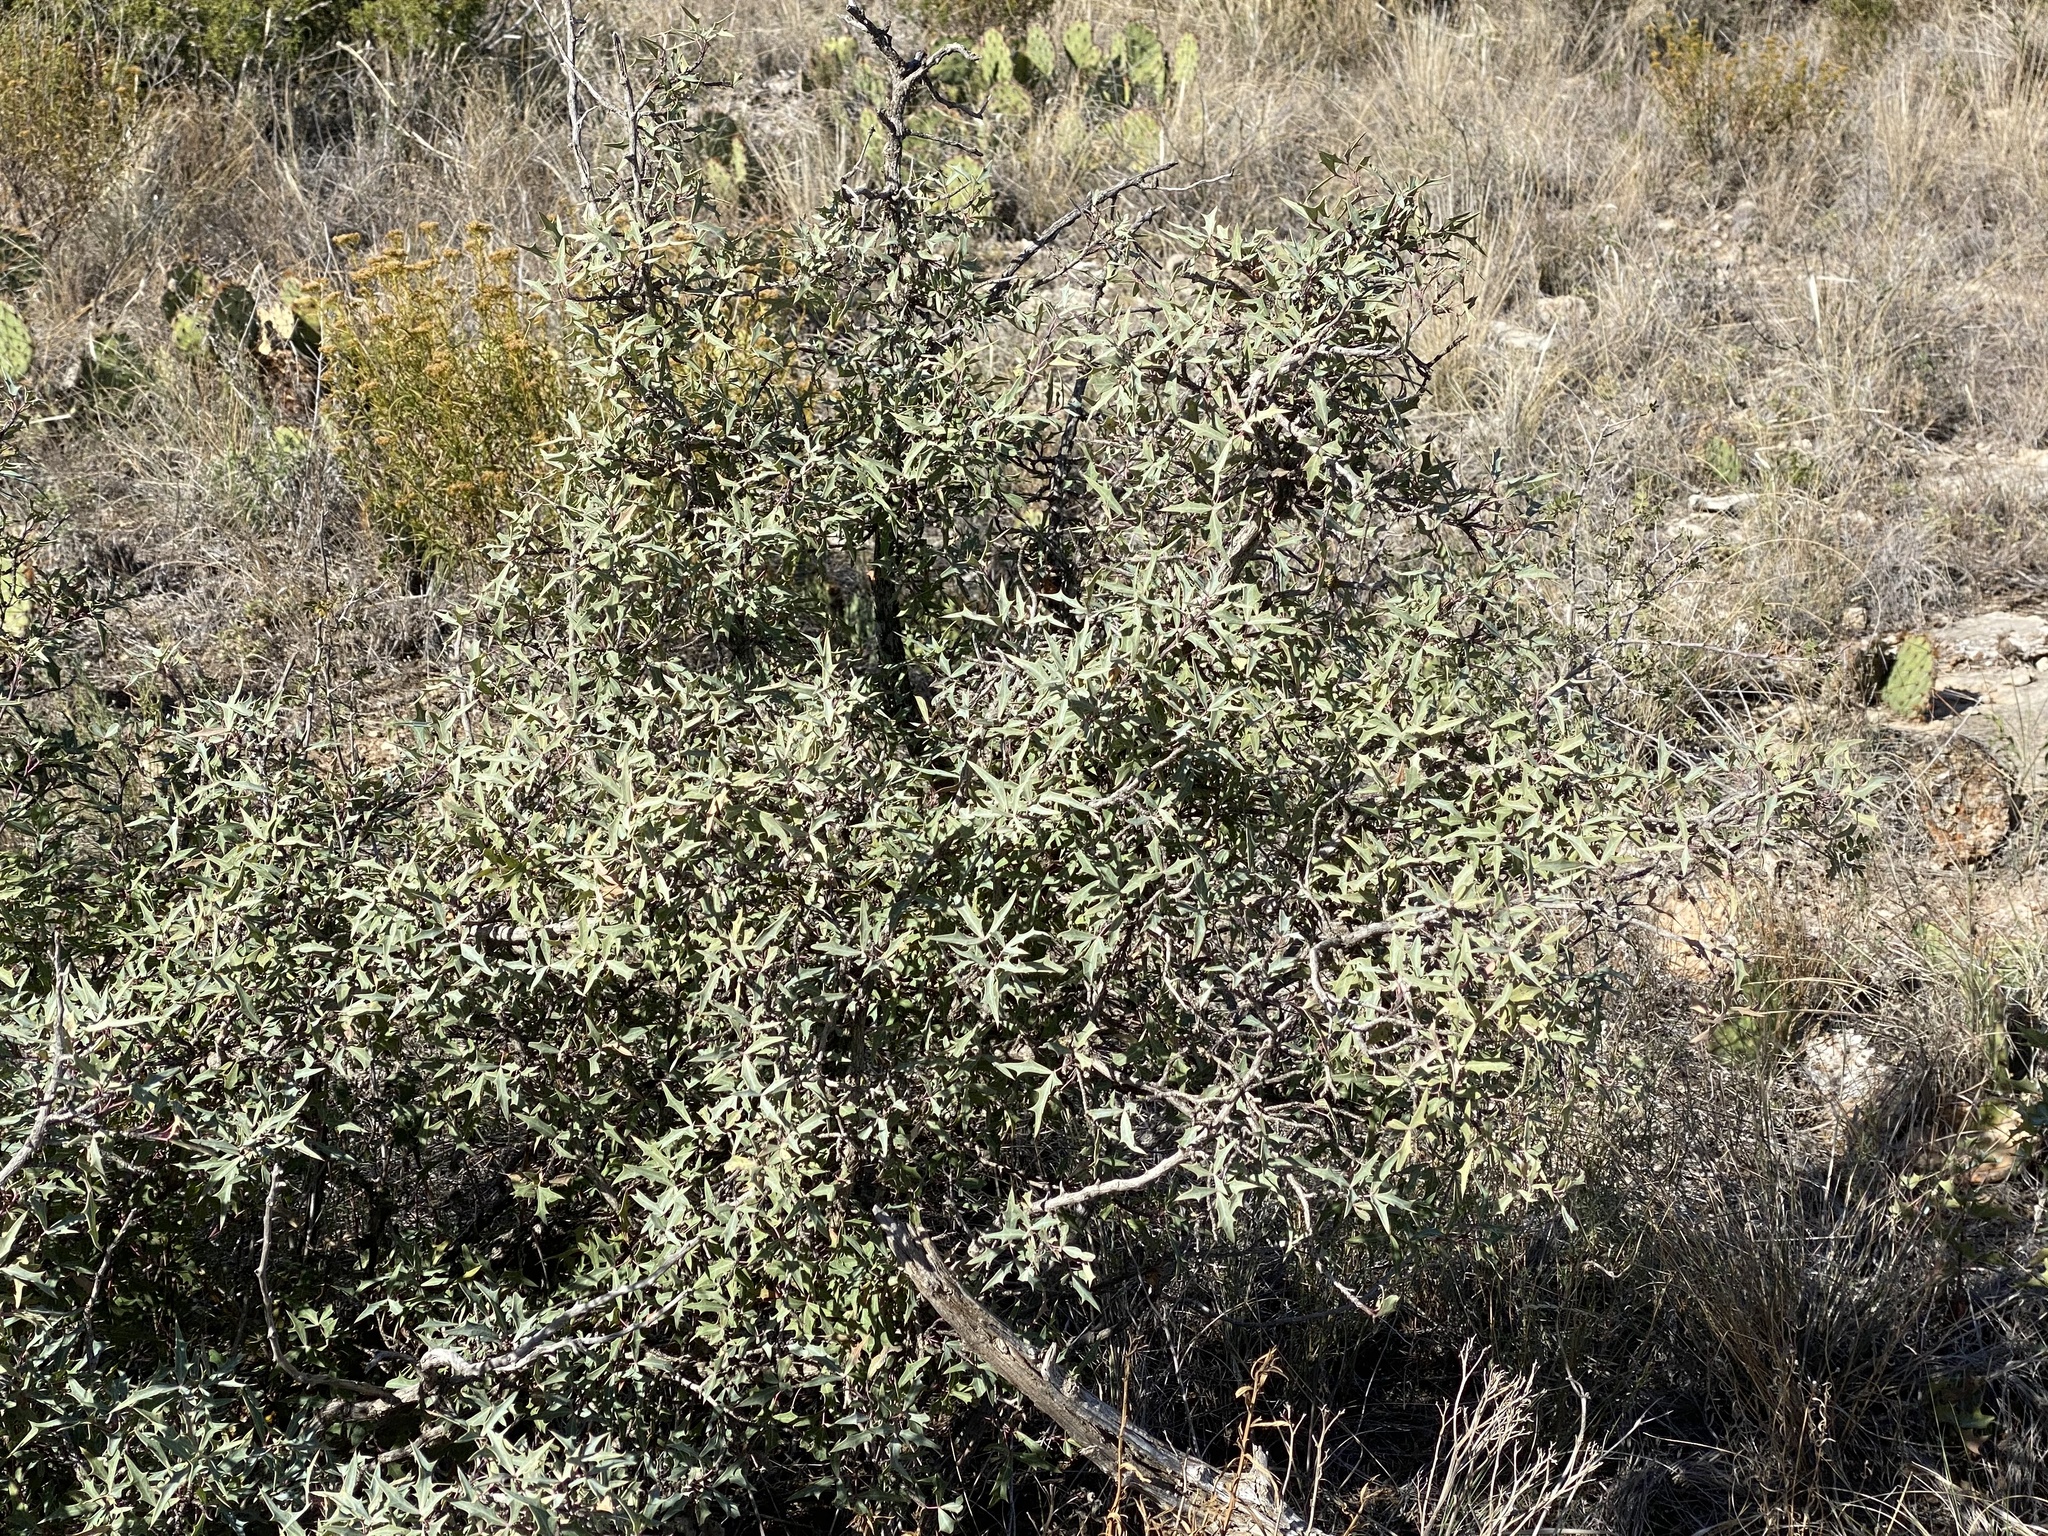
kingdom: Plantae
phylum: Tracheophyta
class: Magnoliopsida
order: Ranunculales
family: Berberidaceae
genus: Alloberberis
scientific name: Alloberberis trifoliolata
